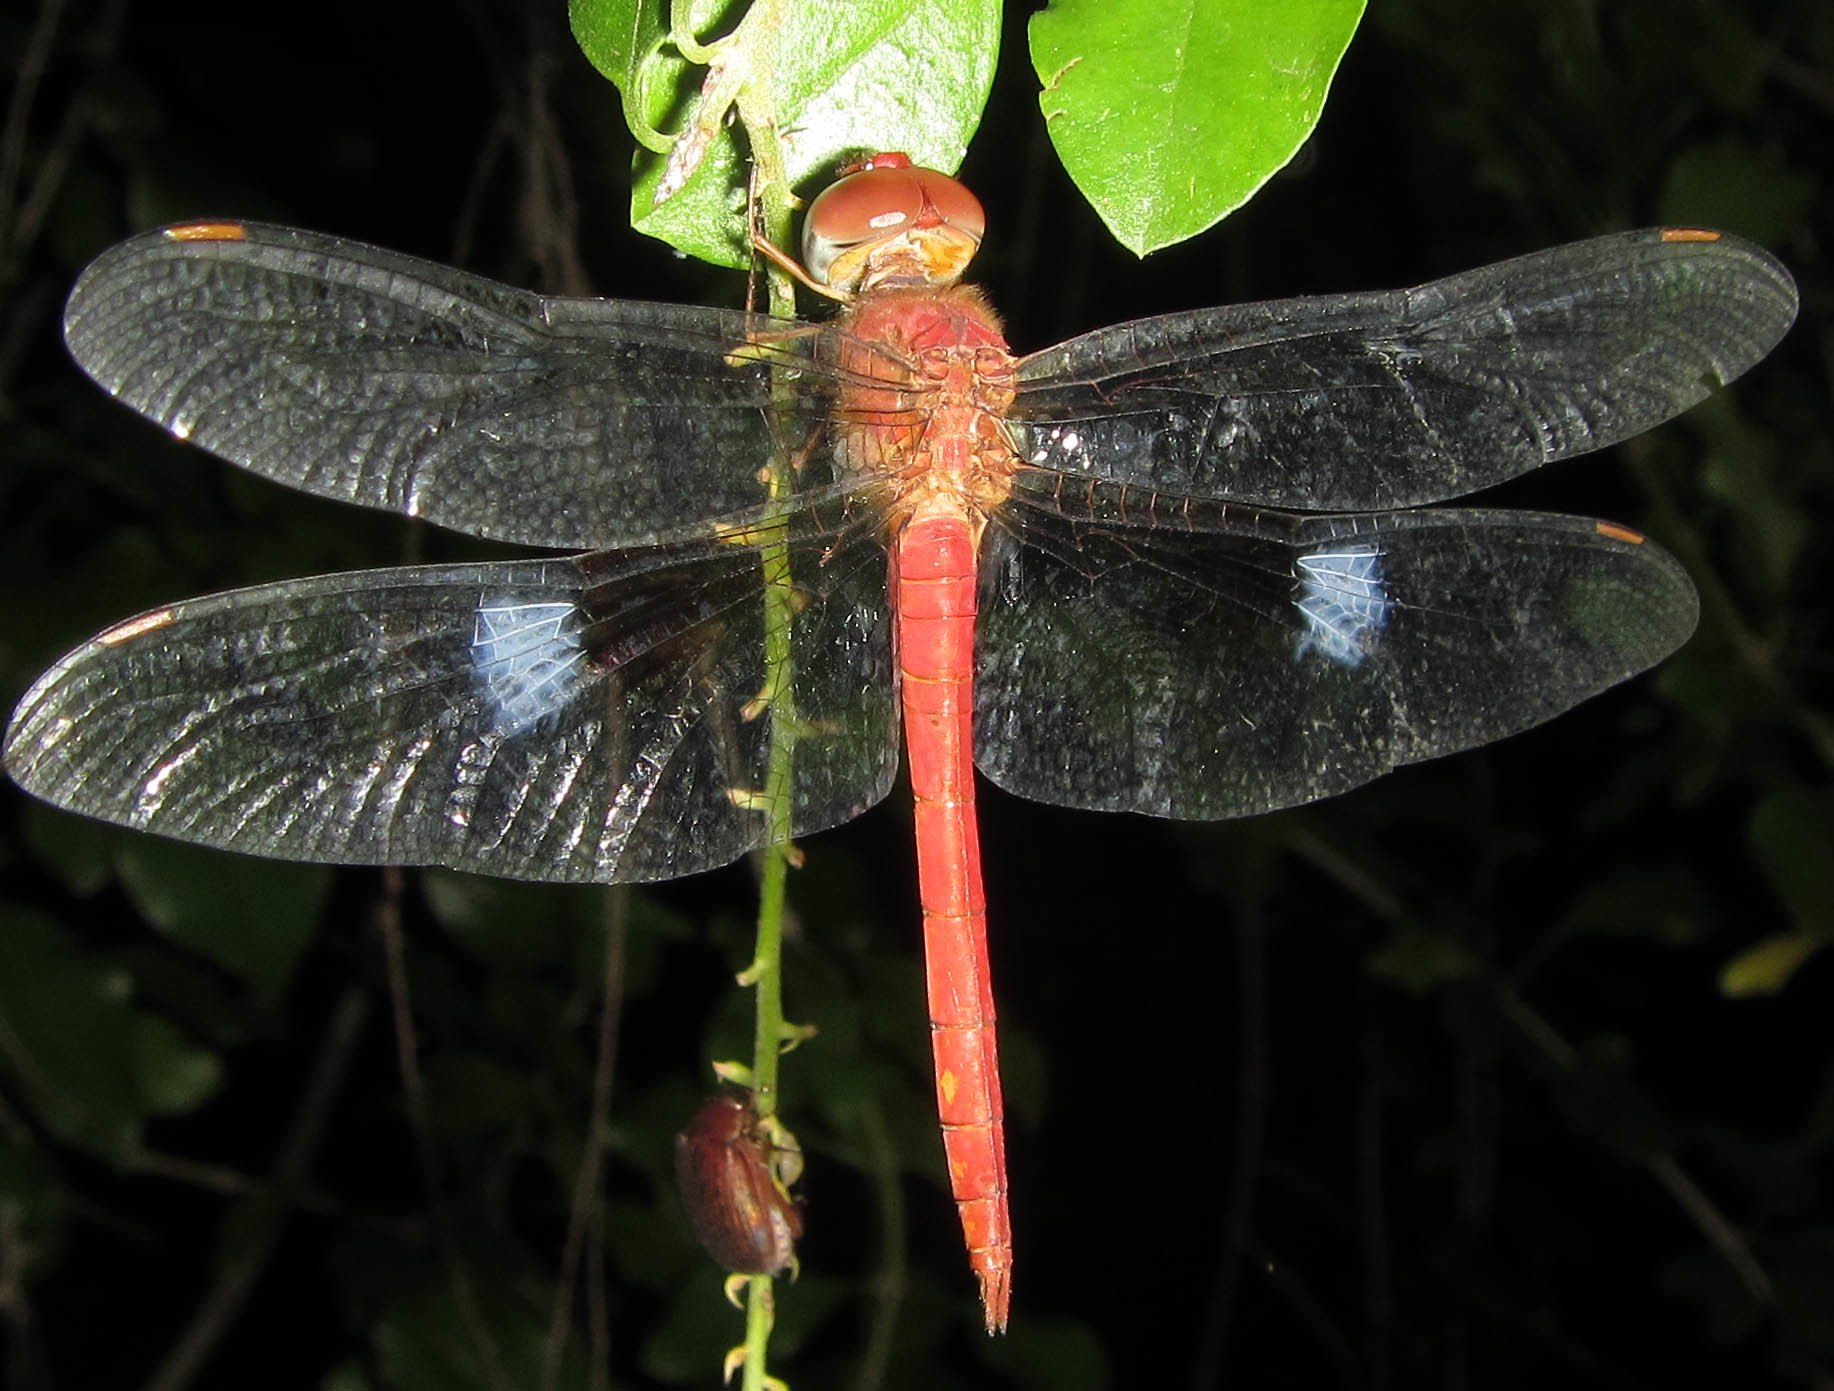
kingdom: Animalia
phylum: Arthropoda
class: Insecta
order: Odonata
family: Libellulidae
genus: Tholymis
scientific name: Tholymis tillarga
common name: Coral-tailed cloud wing
